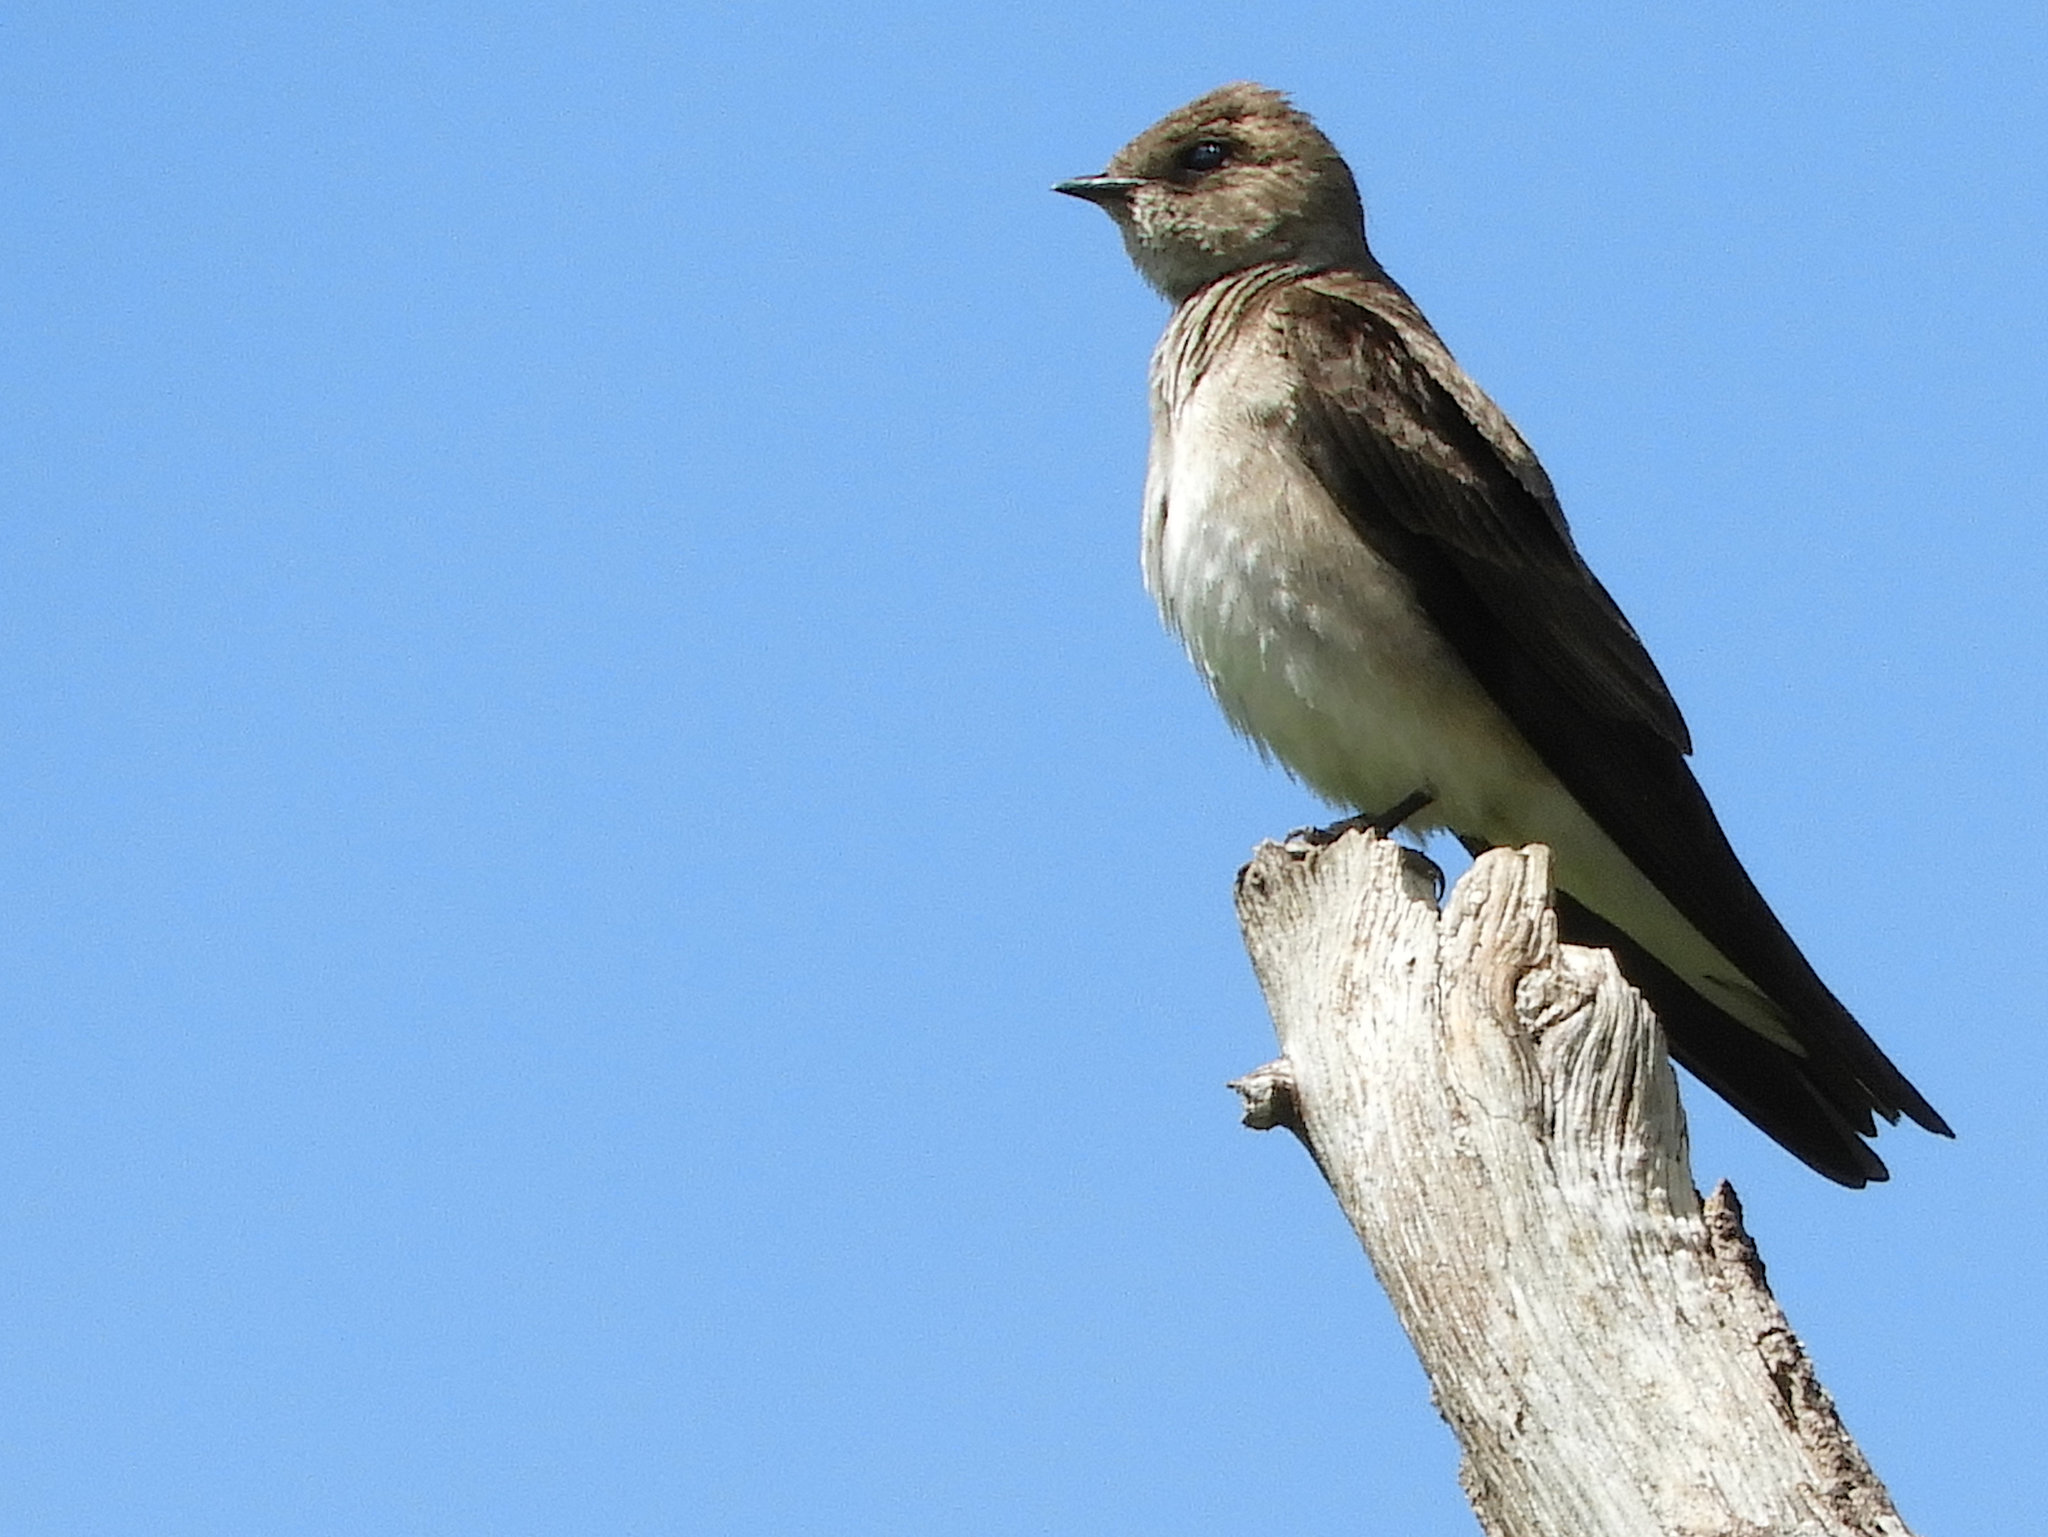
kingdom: Animalia
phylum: Chordata
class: Aves
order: Passeriformes
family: Hirundinidae
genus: Tachycineta
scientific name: Tachycineta bicolor
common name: Tree swallow
